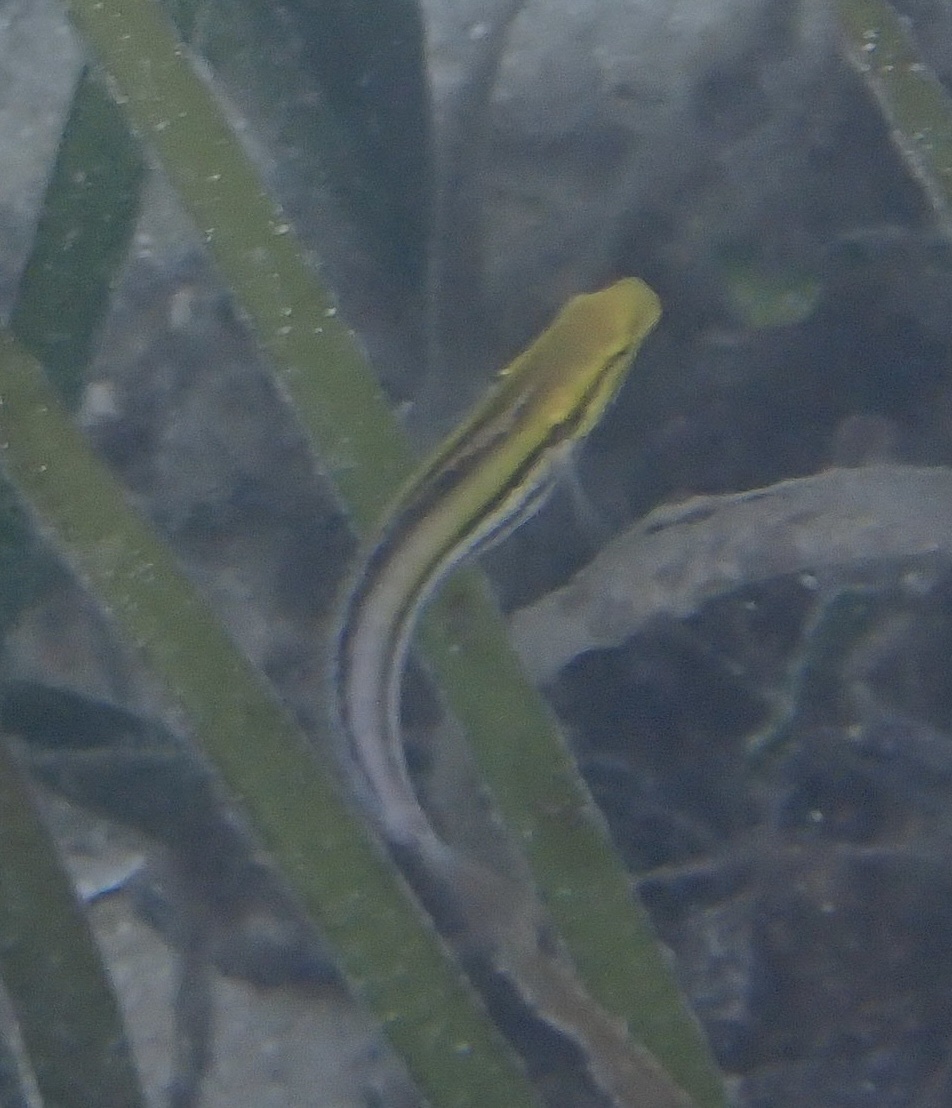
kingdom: Animalia
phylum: Chordata
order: Perciformes
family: Blenniidae
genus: Petroscirtes
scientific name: Petroscirtes breviceps
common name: Short-head sabretooth blenny
